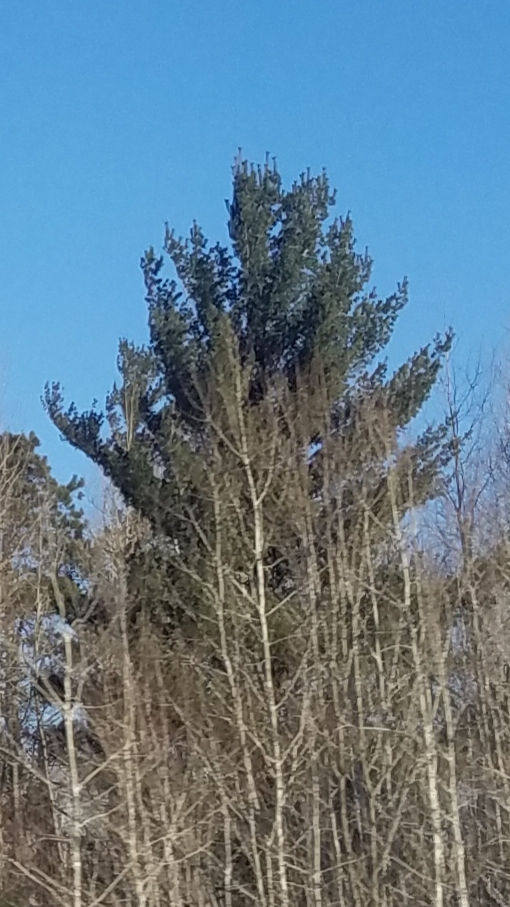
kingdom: Plantae
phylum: Tracheophyta
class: Pinopsida
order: Pinales
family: Pinaceae
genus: Pinus
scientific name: Pinus strobus
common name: Weymouth pine
